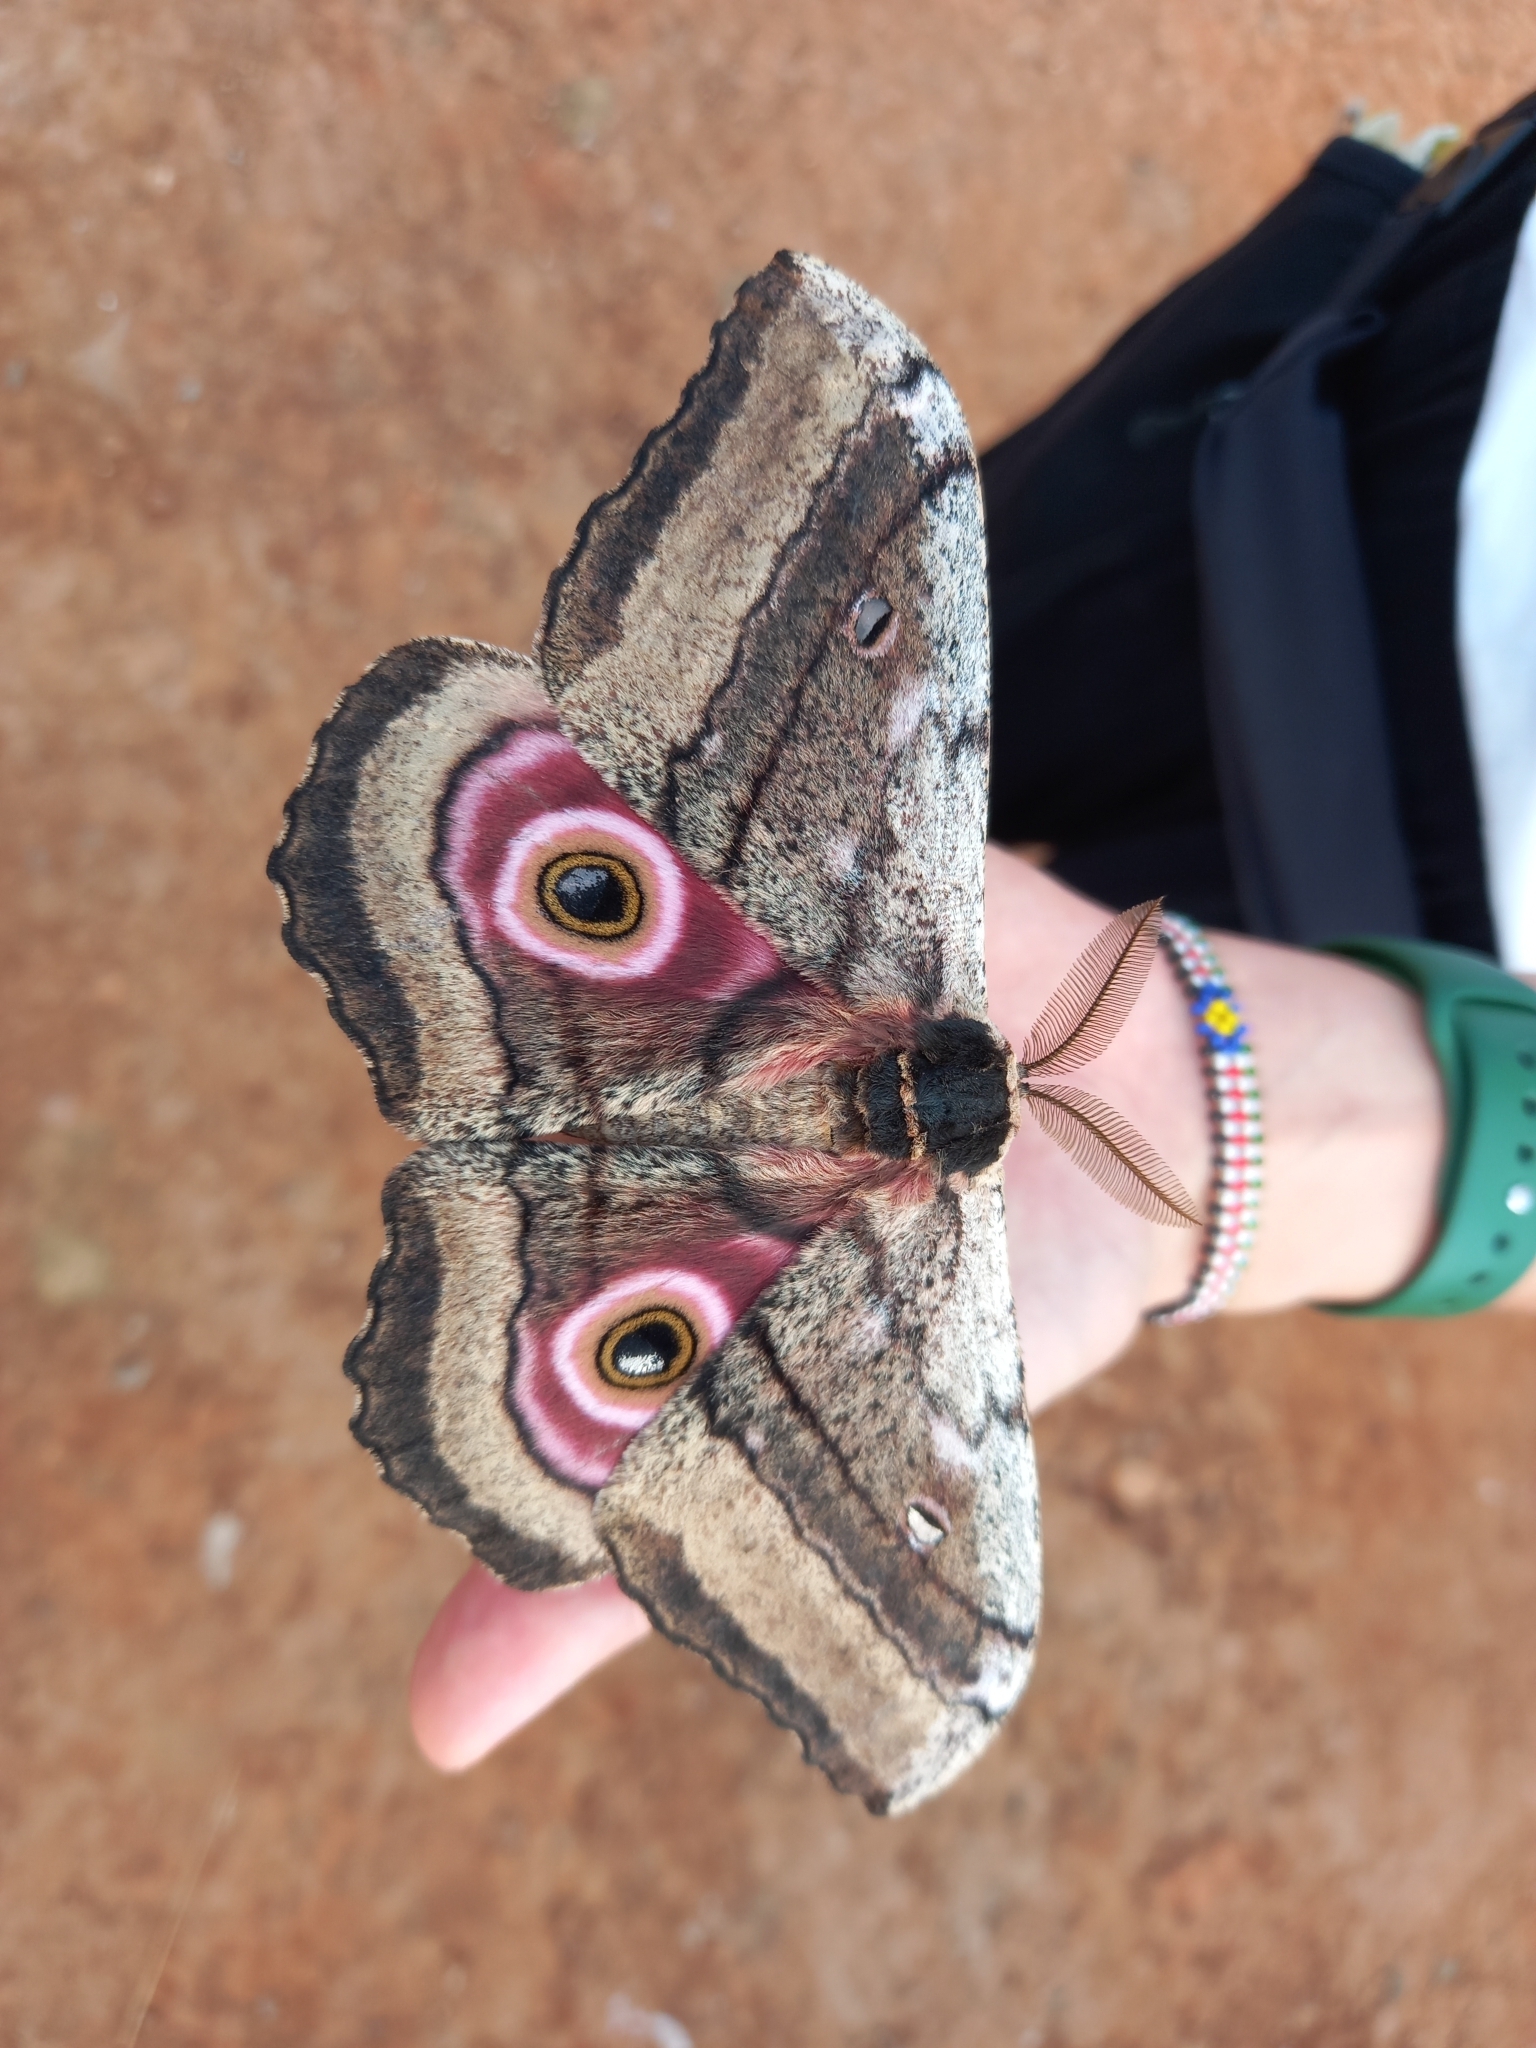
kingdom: Animalia
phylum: Arthropoda
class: Insecta
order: Lepidoptera
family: Saturniidae
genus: Gynanisa
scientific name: Gynanisa maja
